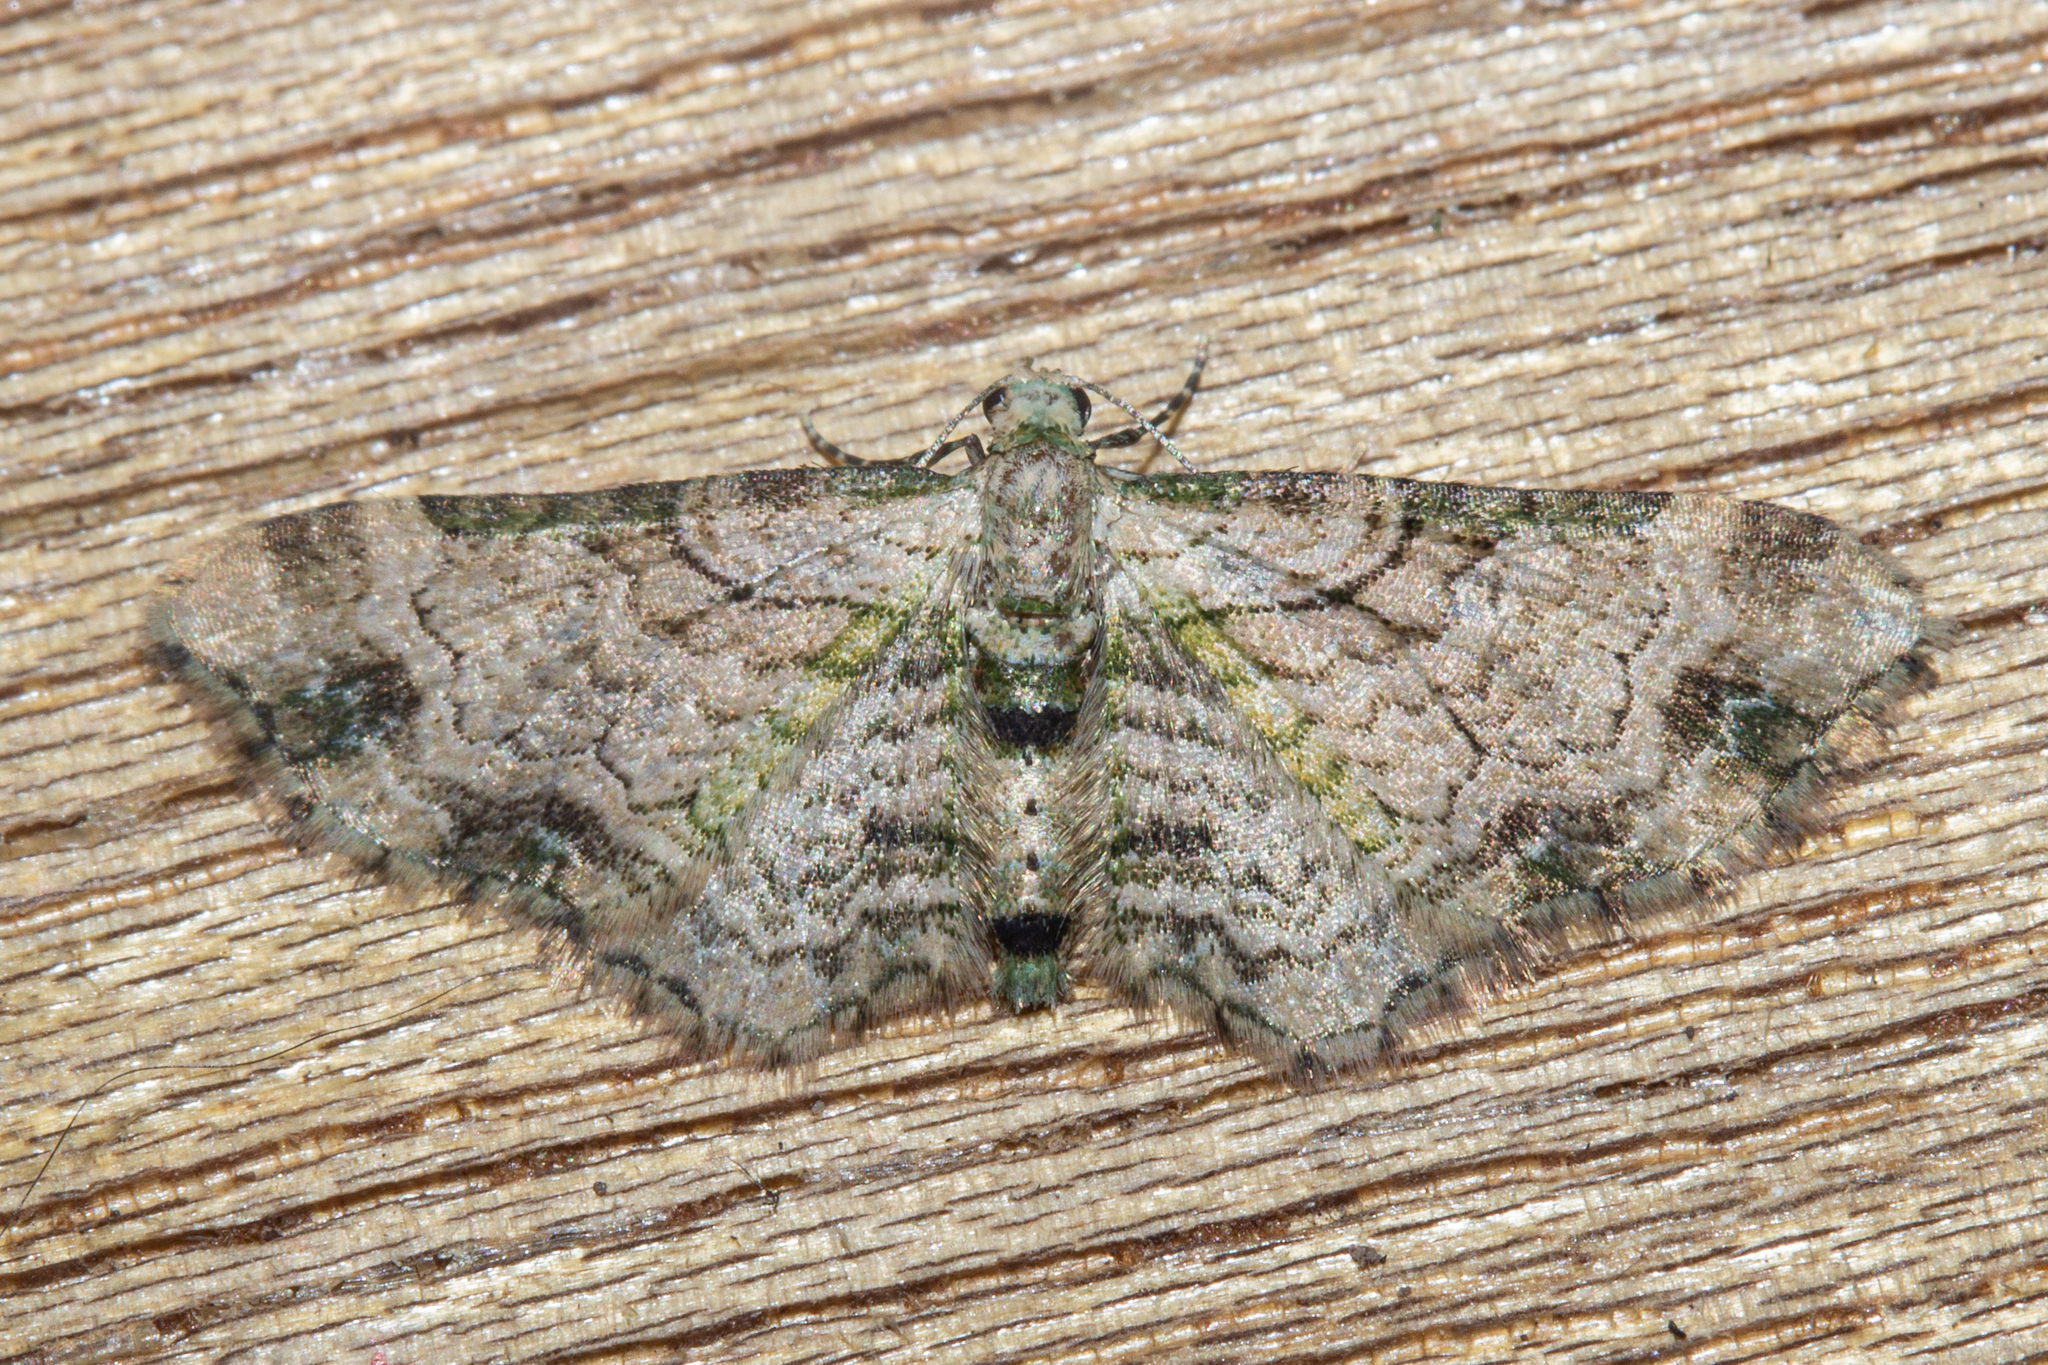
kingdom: Animalia
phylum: Arthropoda
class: Insecta
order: Lepidoptera
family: Geometridae
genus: Chloroclystis
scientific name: Chloroclystis
